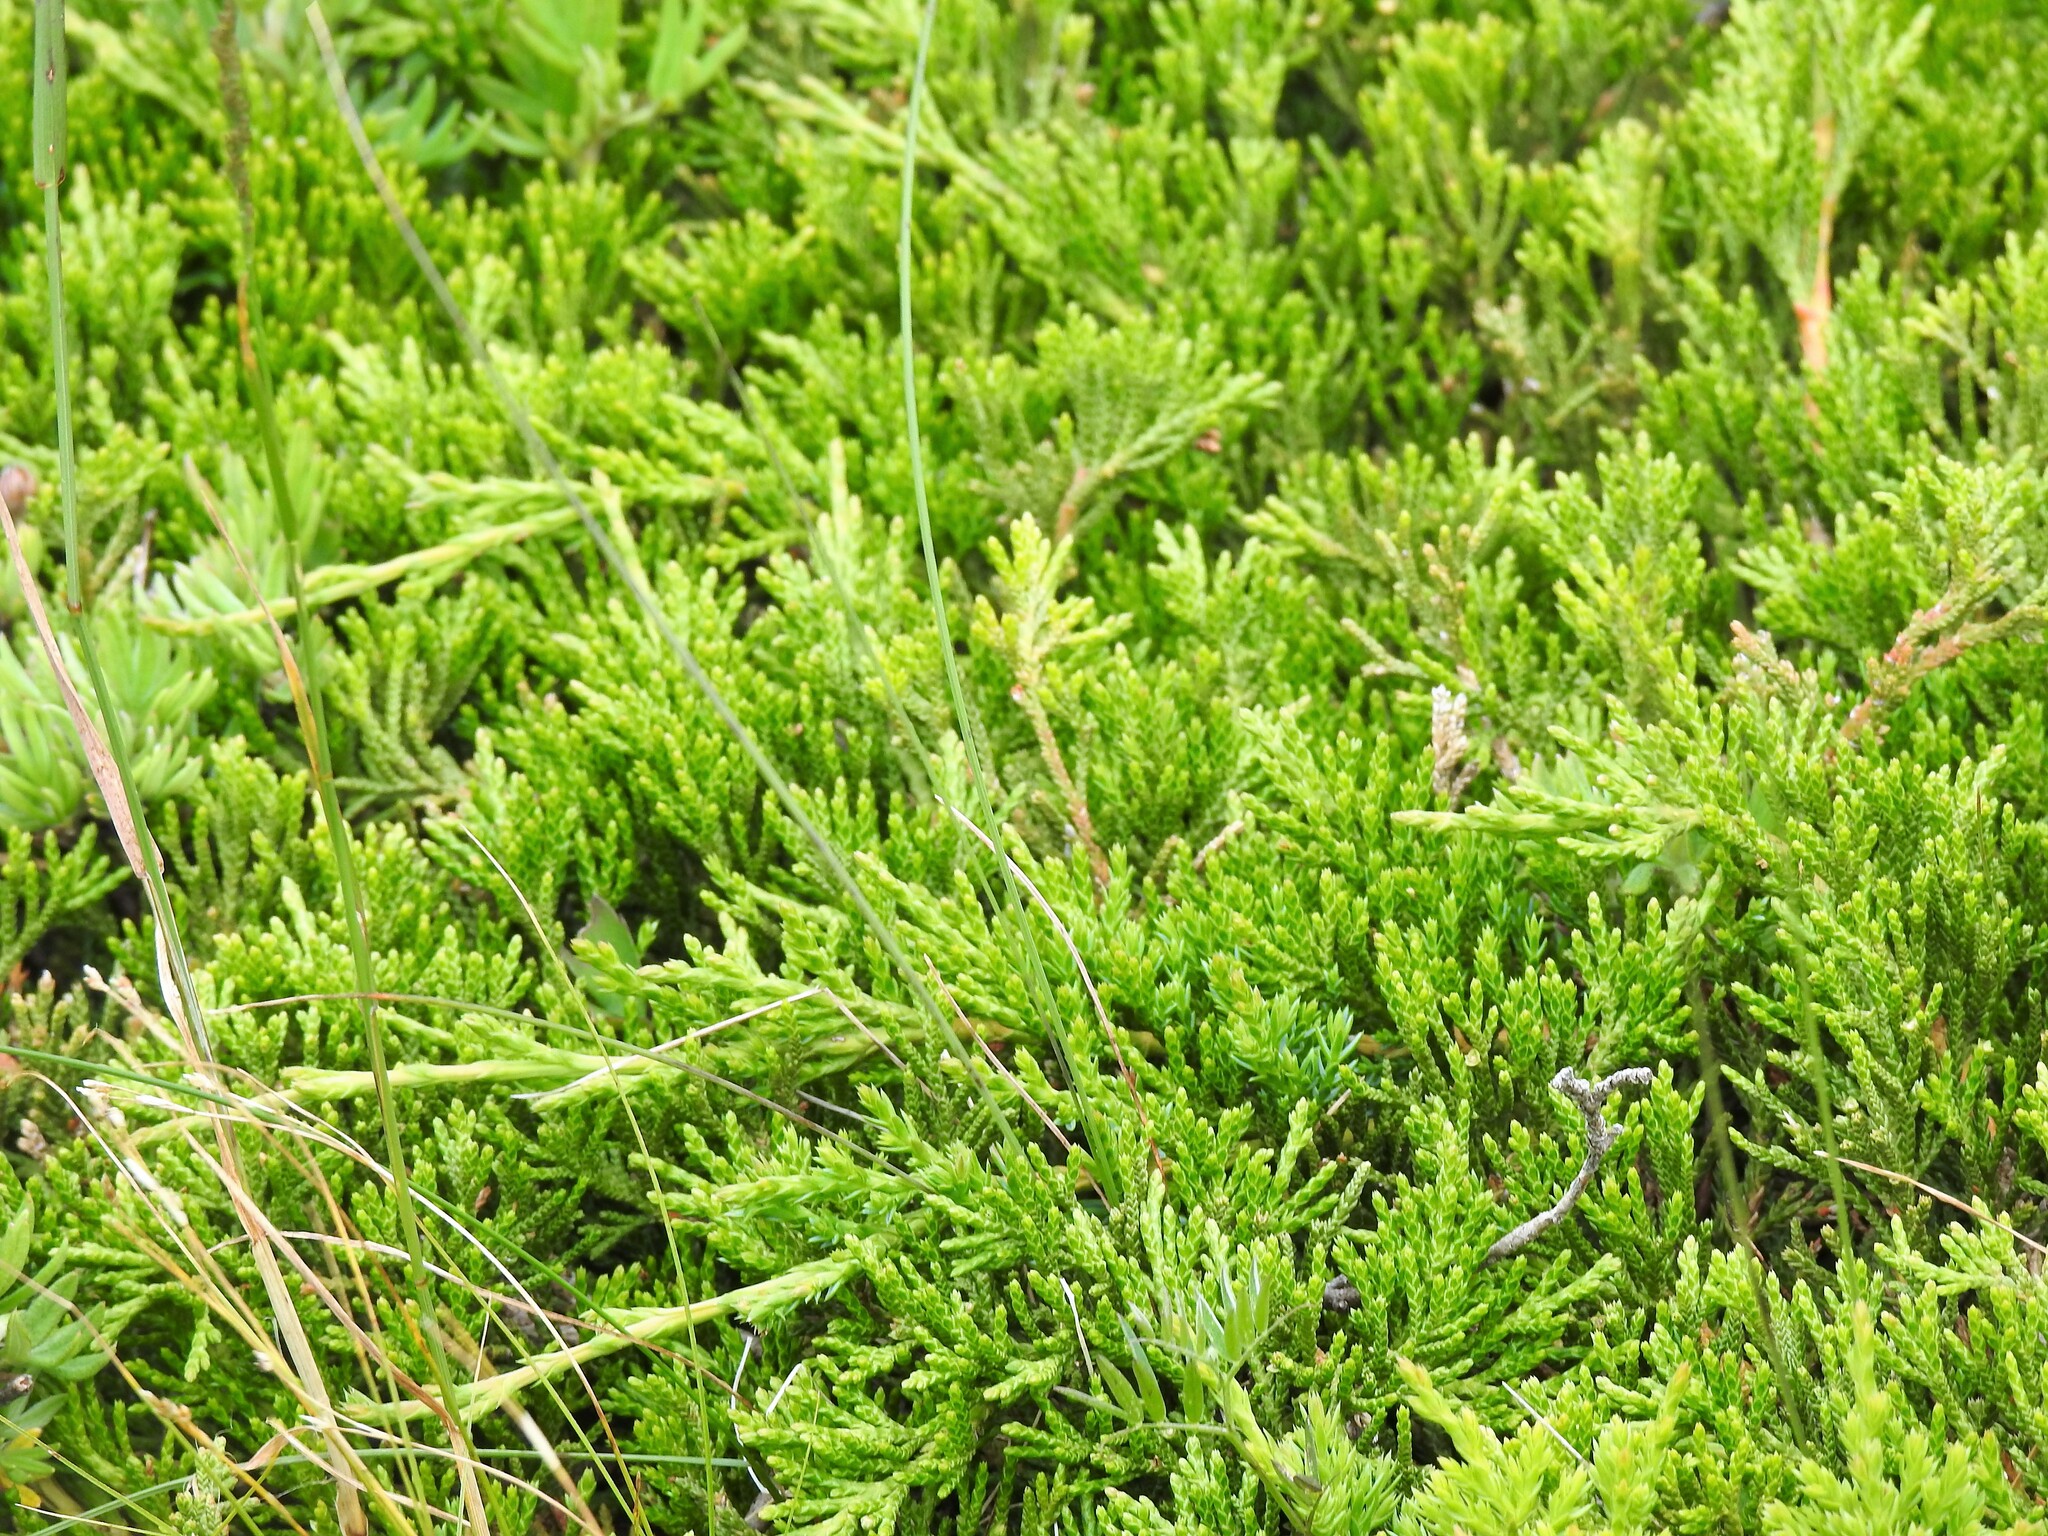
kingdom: Plantae
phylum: Tracheophyta
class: Pinopsida
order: Pinales
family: Cupressaceae
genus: Juniperus
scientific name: Juniperus horizontalis
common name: Creeping juniper
